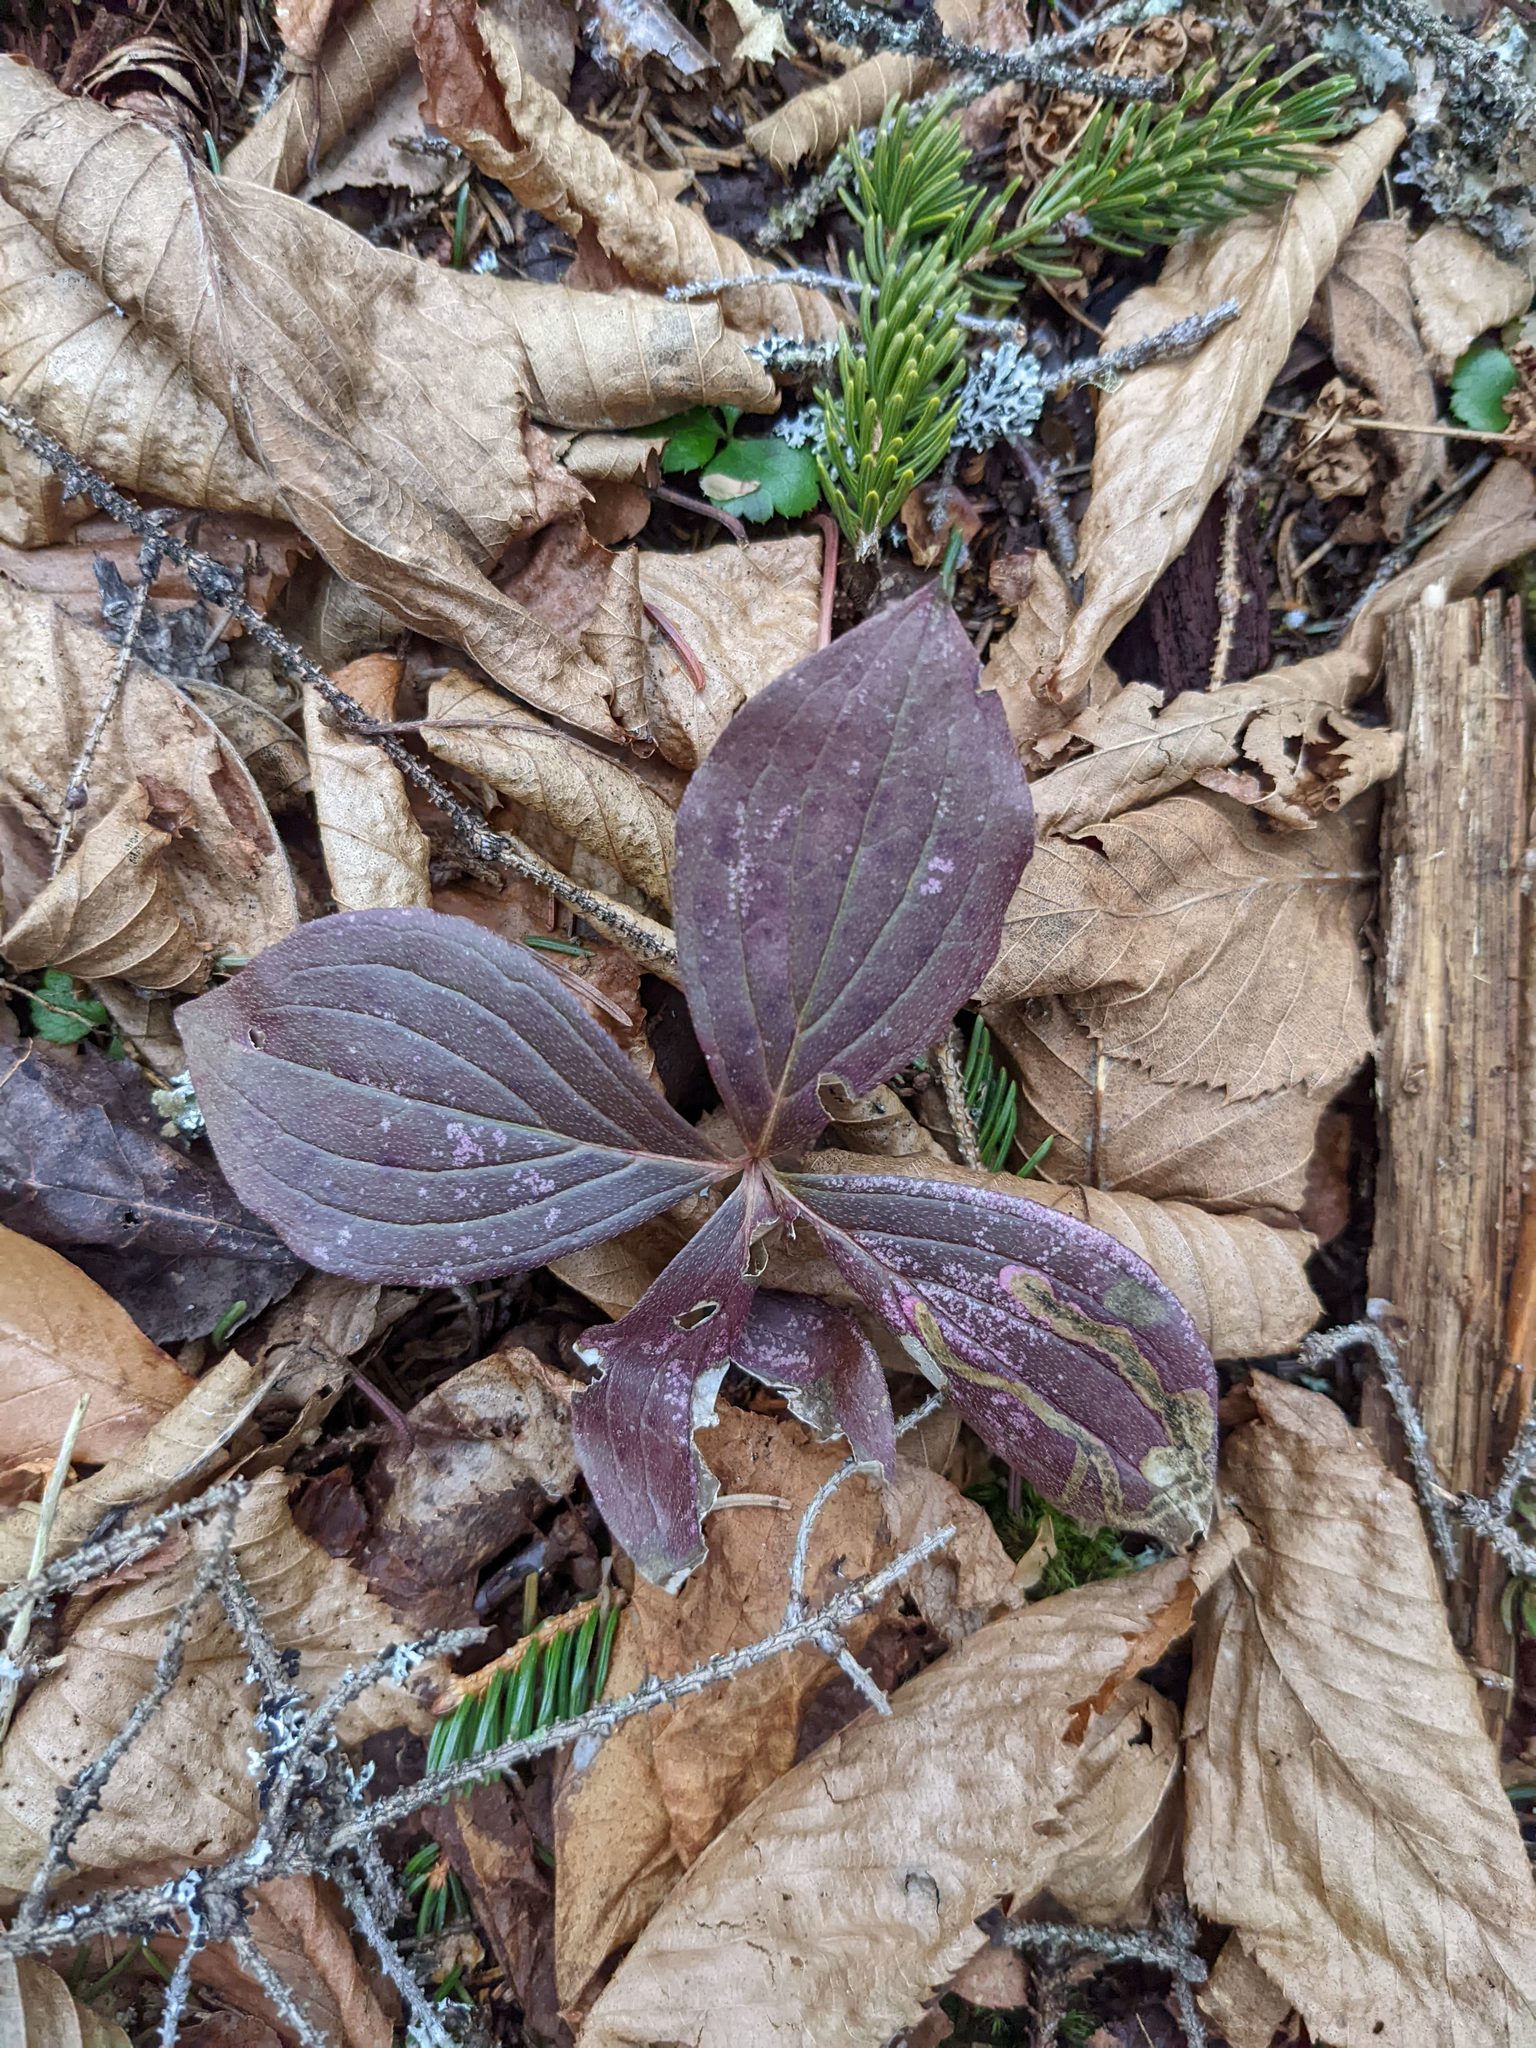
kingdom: Plantae
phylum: Tracheophyta
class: Magnoliopsida
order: Cornales
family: Cornaceae
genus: Cornus
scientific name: Cornus canadensis
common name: Creeping dogwood
